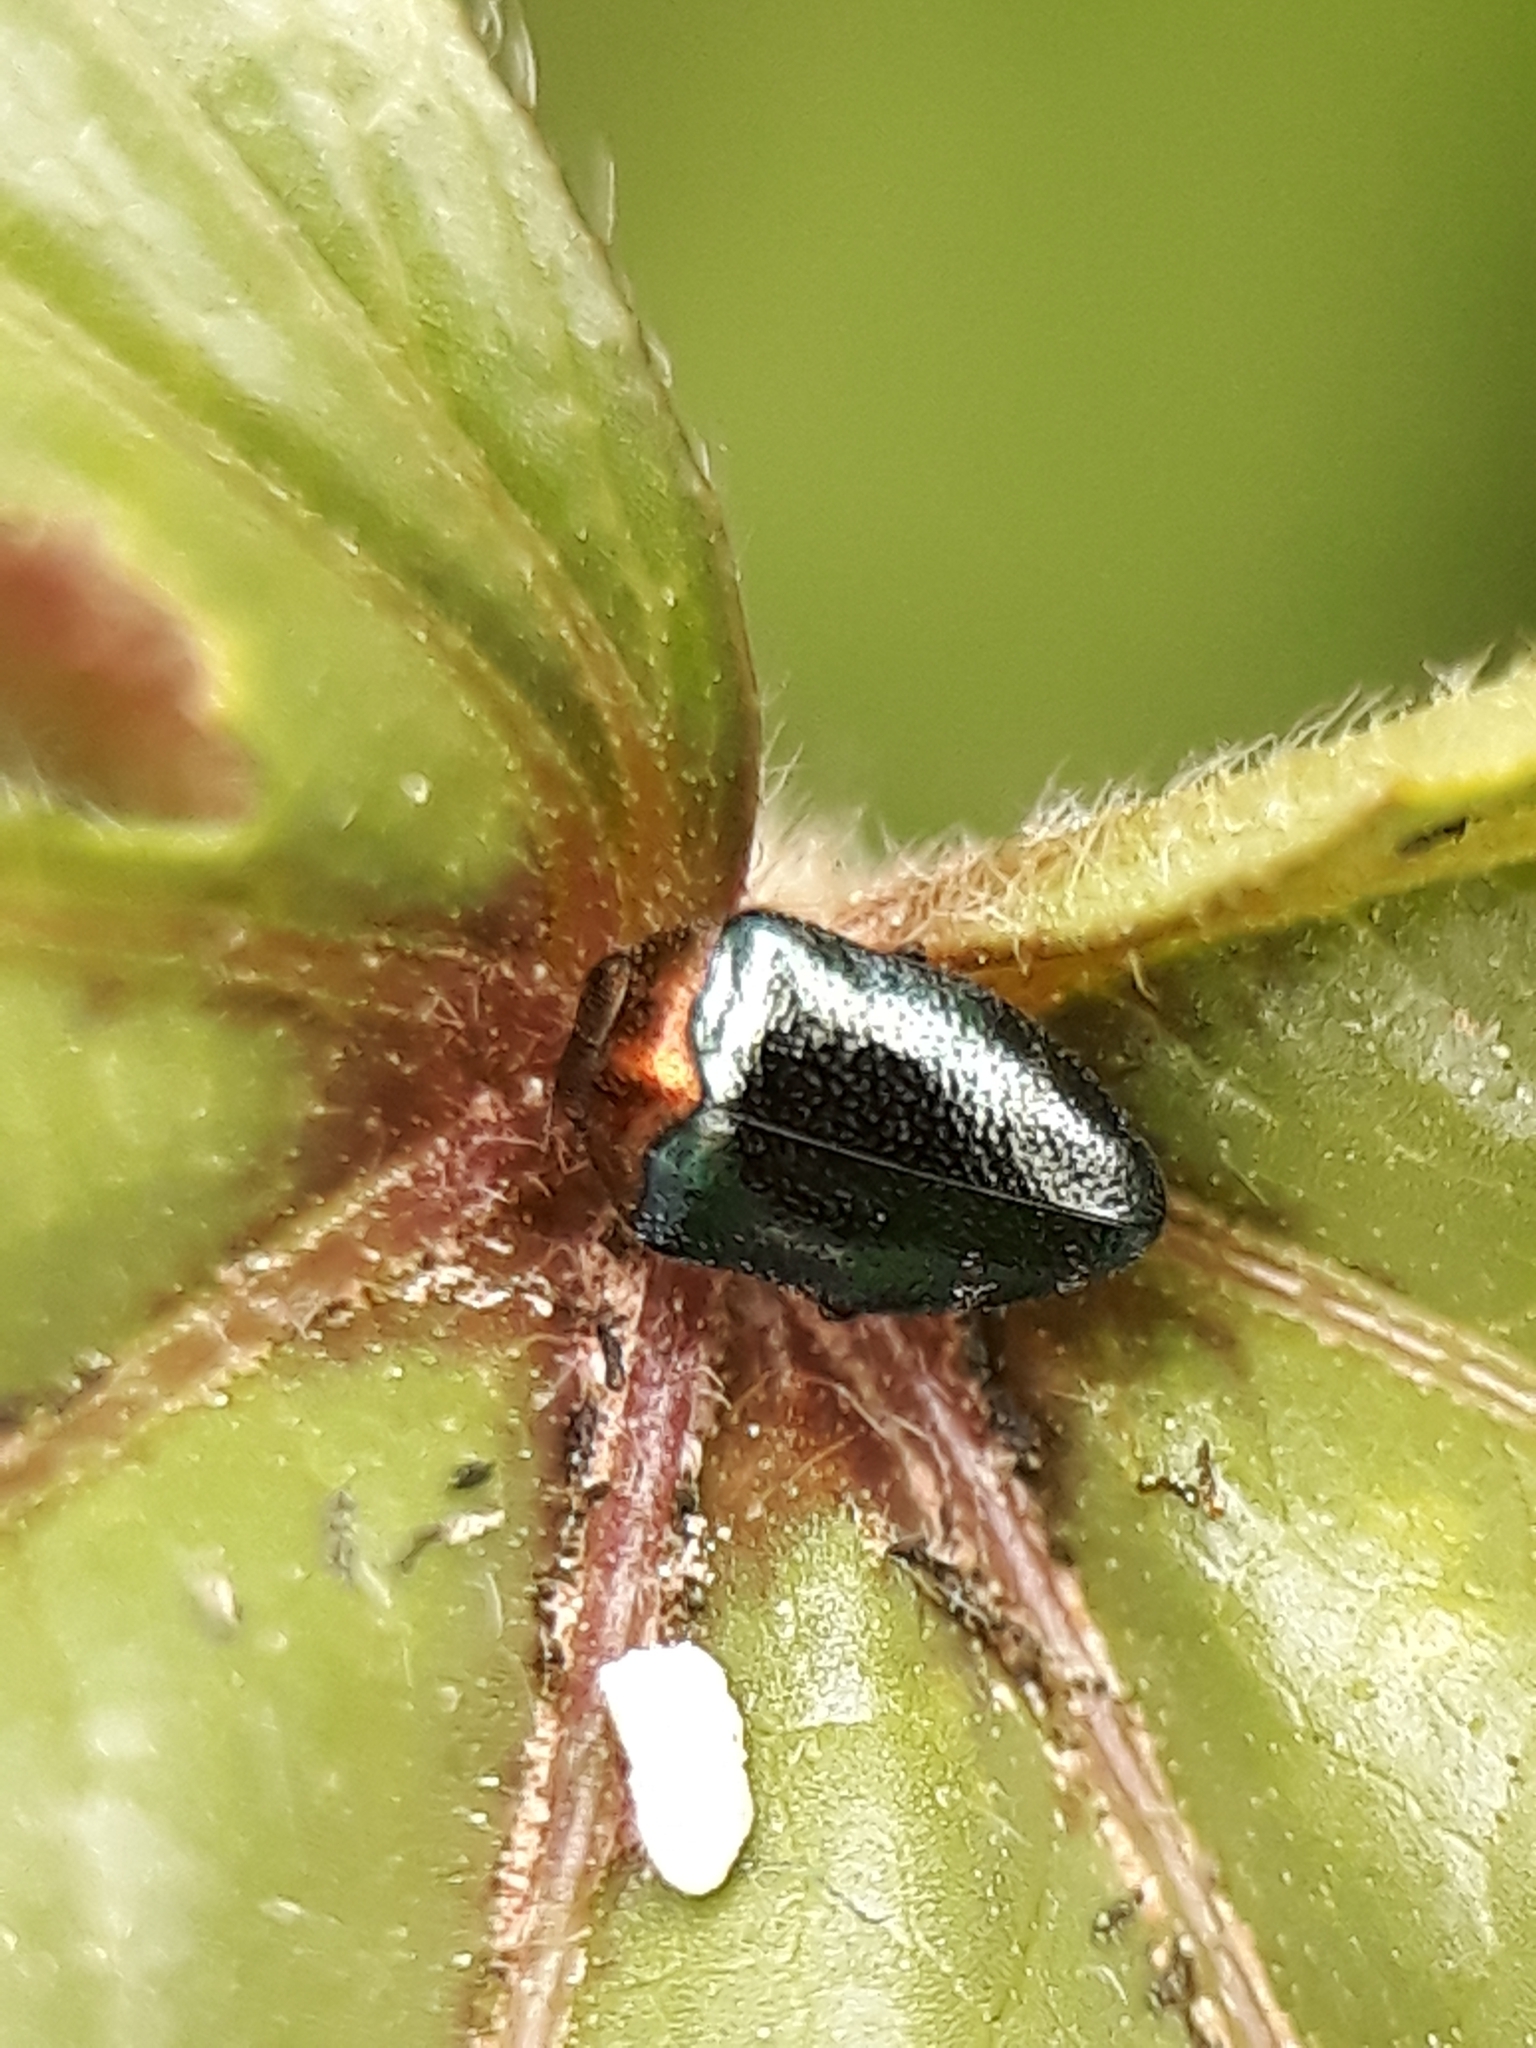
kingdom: Animalia
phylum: Arthropoda
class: Insecta
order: Coleoptera
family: Buprestidae
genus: Trachys
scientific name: Trachys troglodytiformis
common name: Metallic wood-boring beetle
